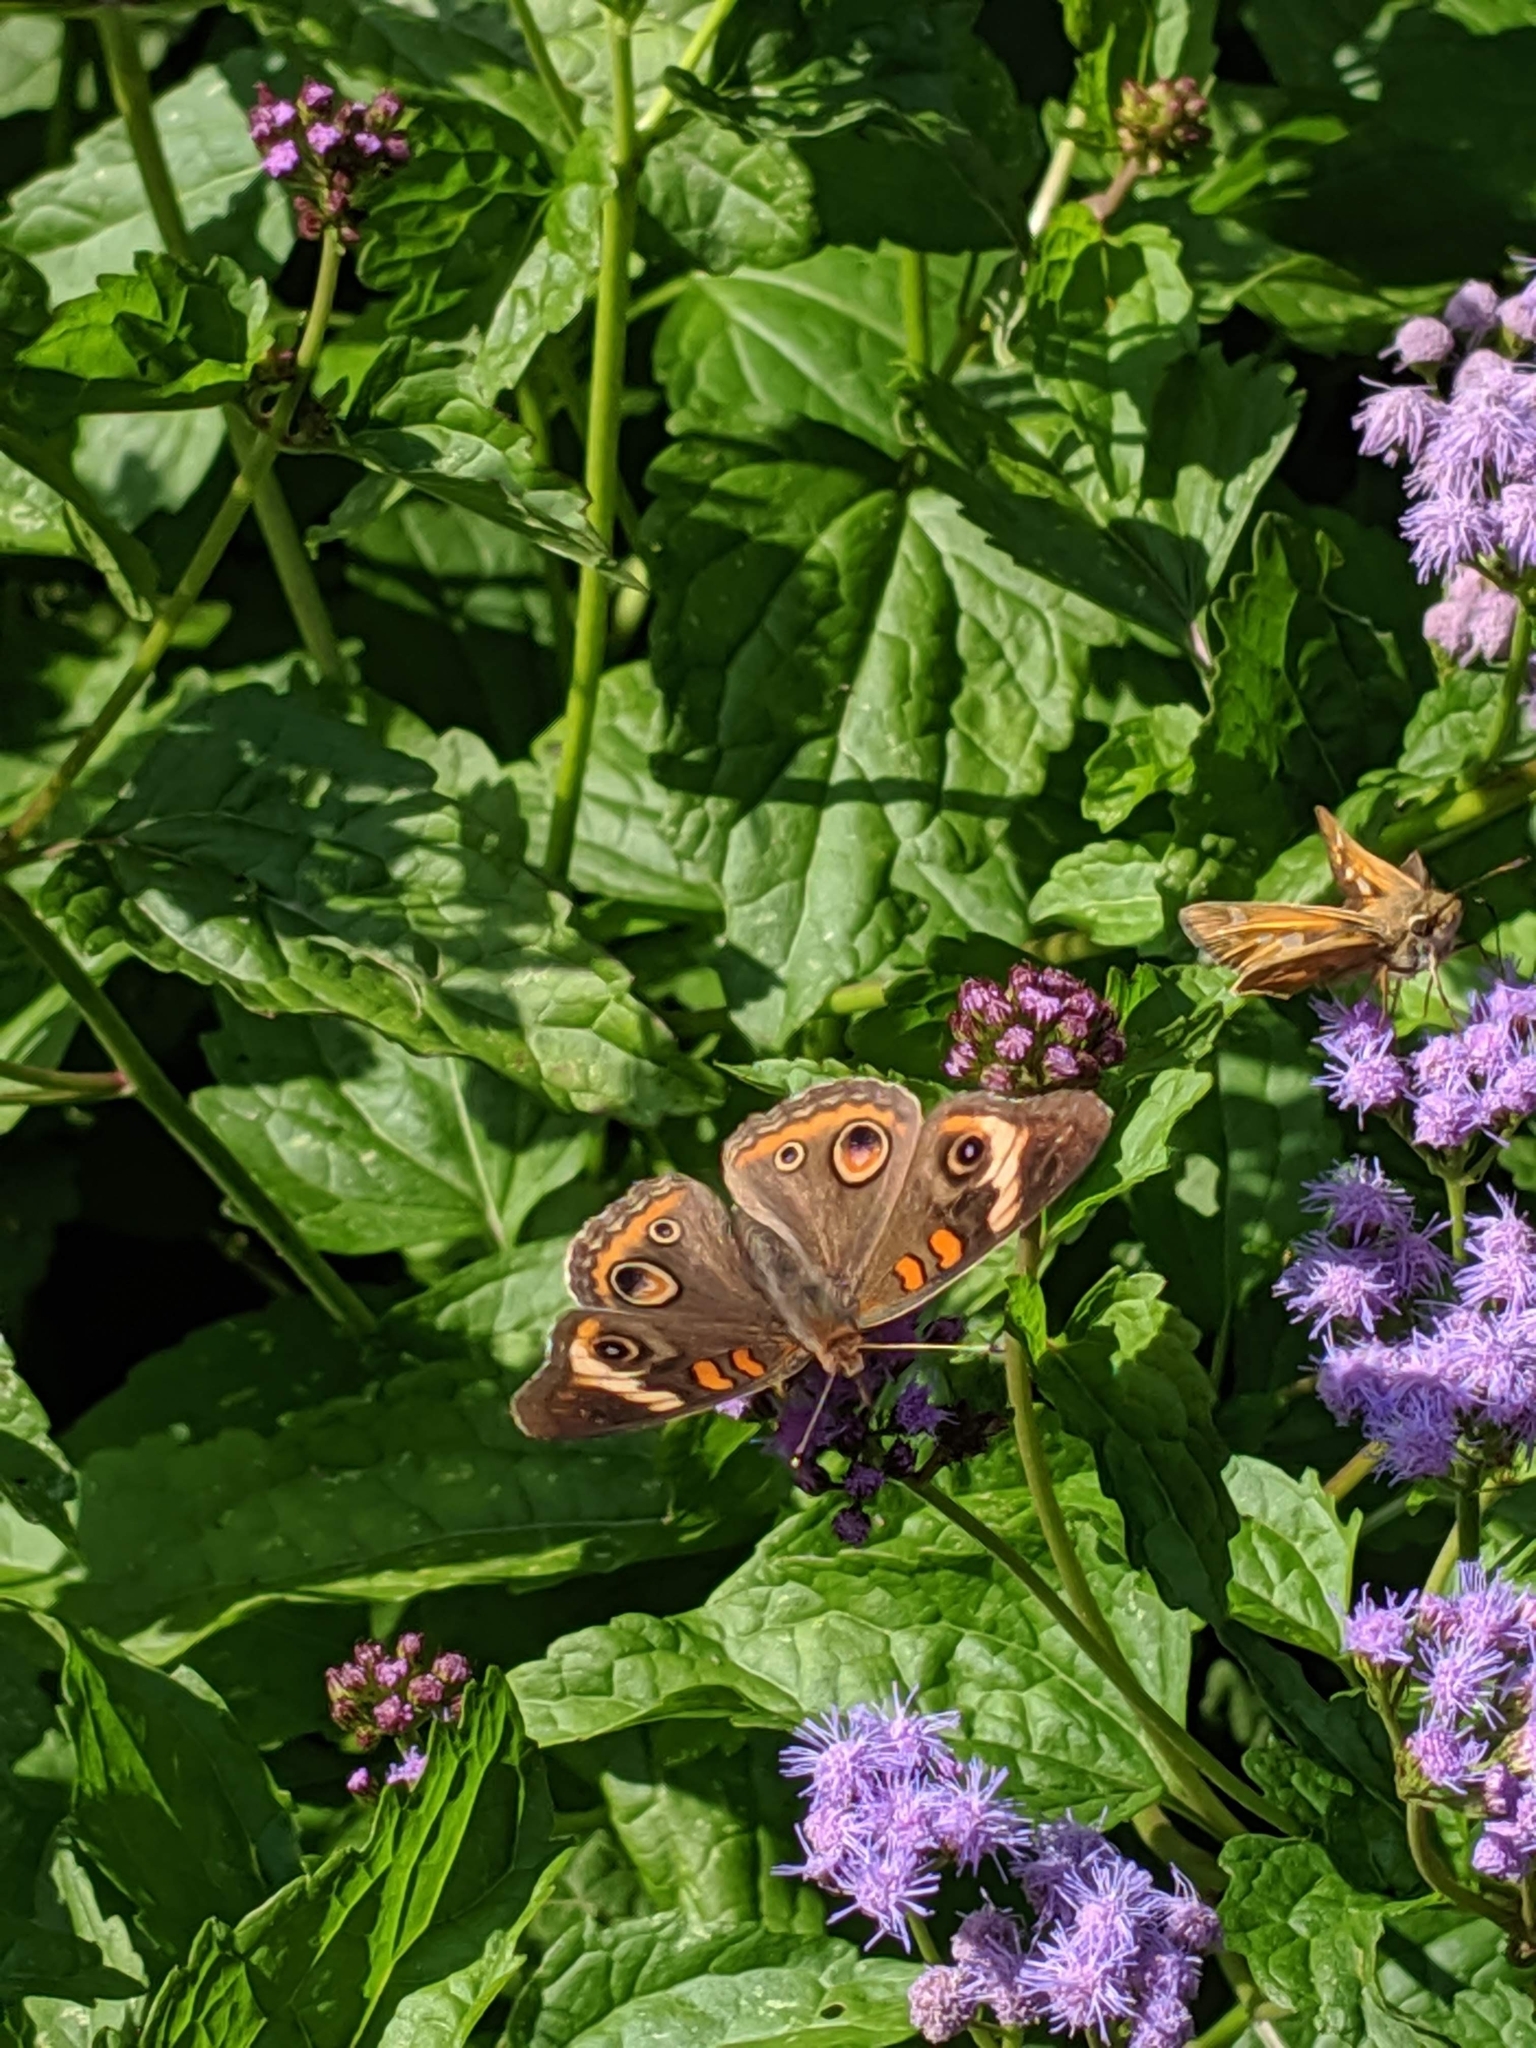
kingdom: Animalia
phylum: Arthropoda
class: Insecta
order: Lepidoptera
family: Nymphalidae
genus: Junonia
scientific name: Junonia coenia
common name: Common buckeye
